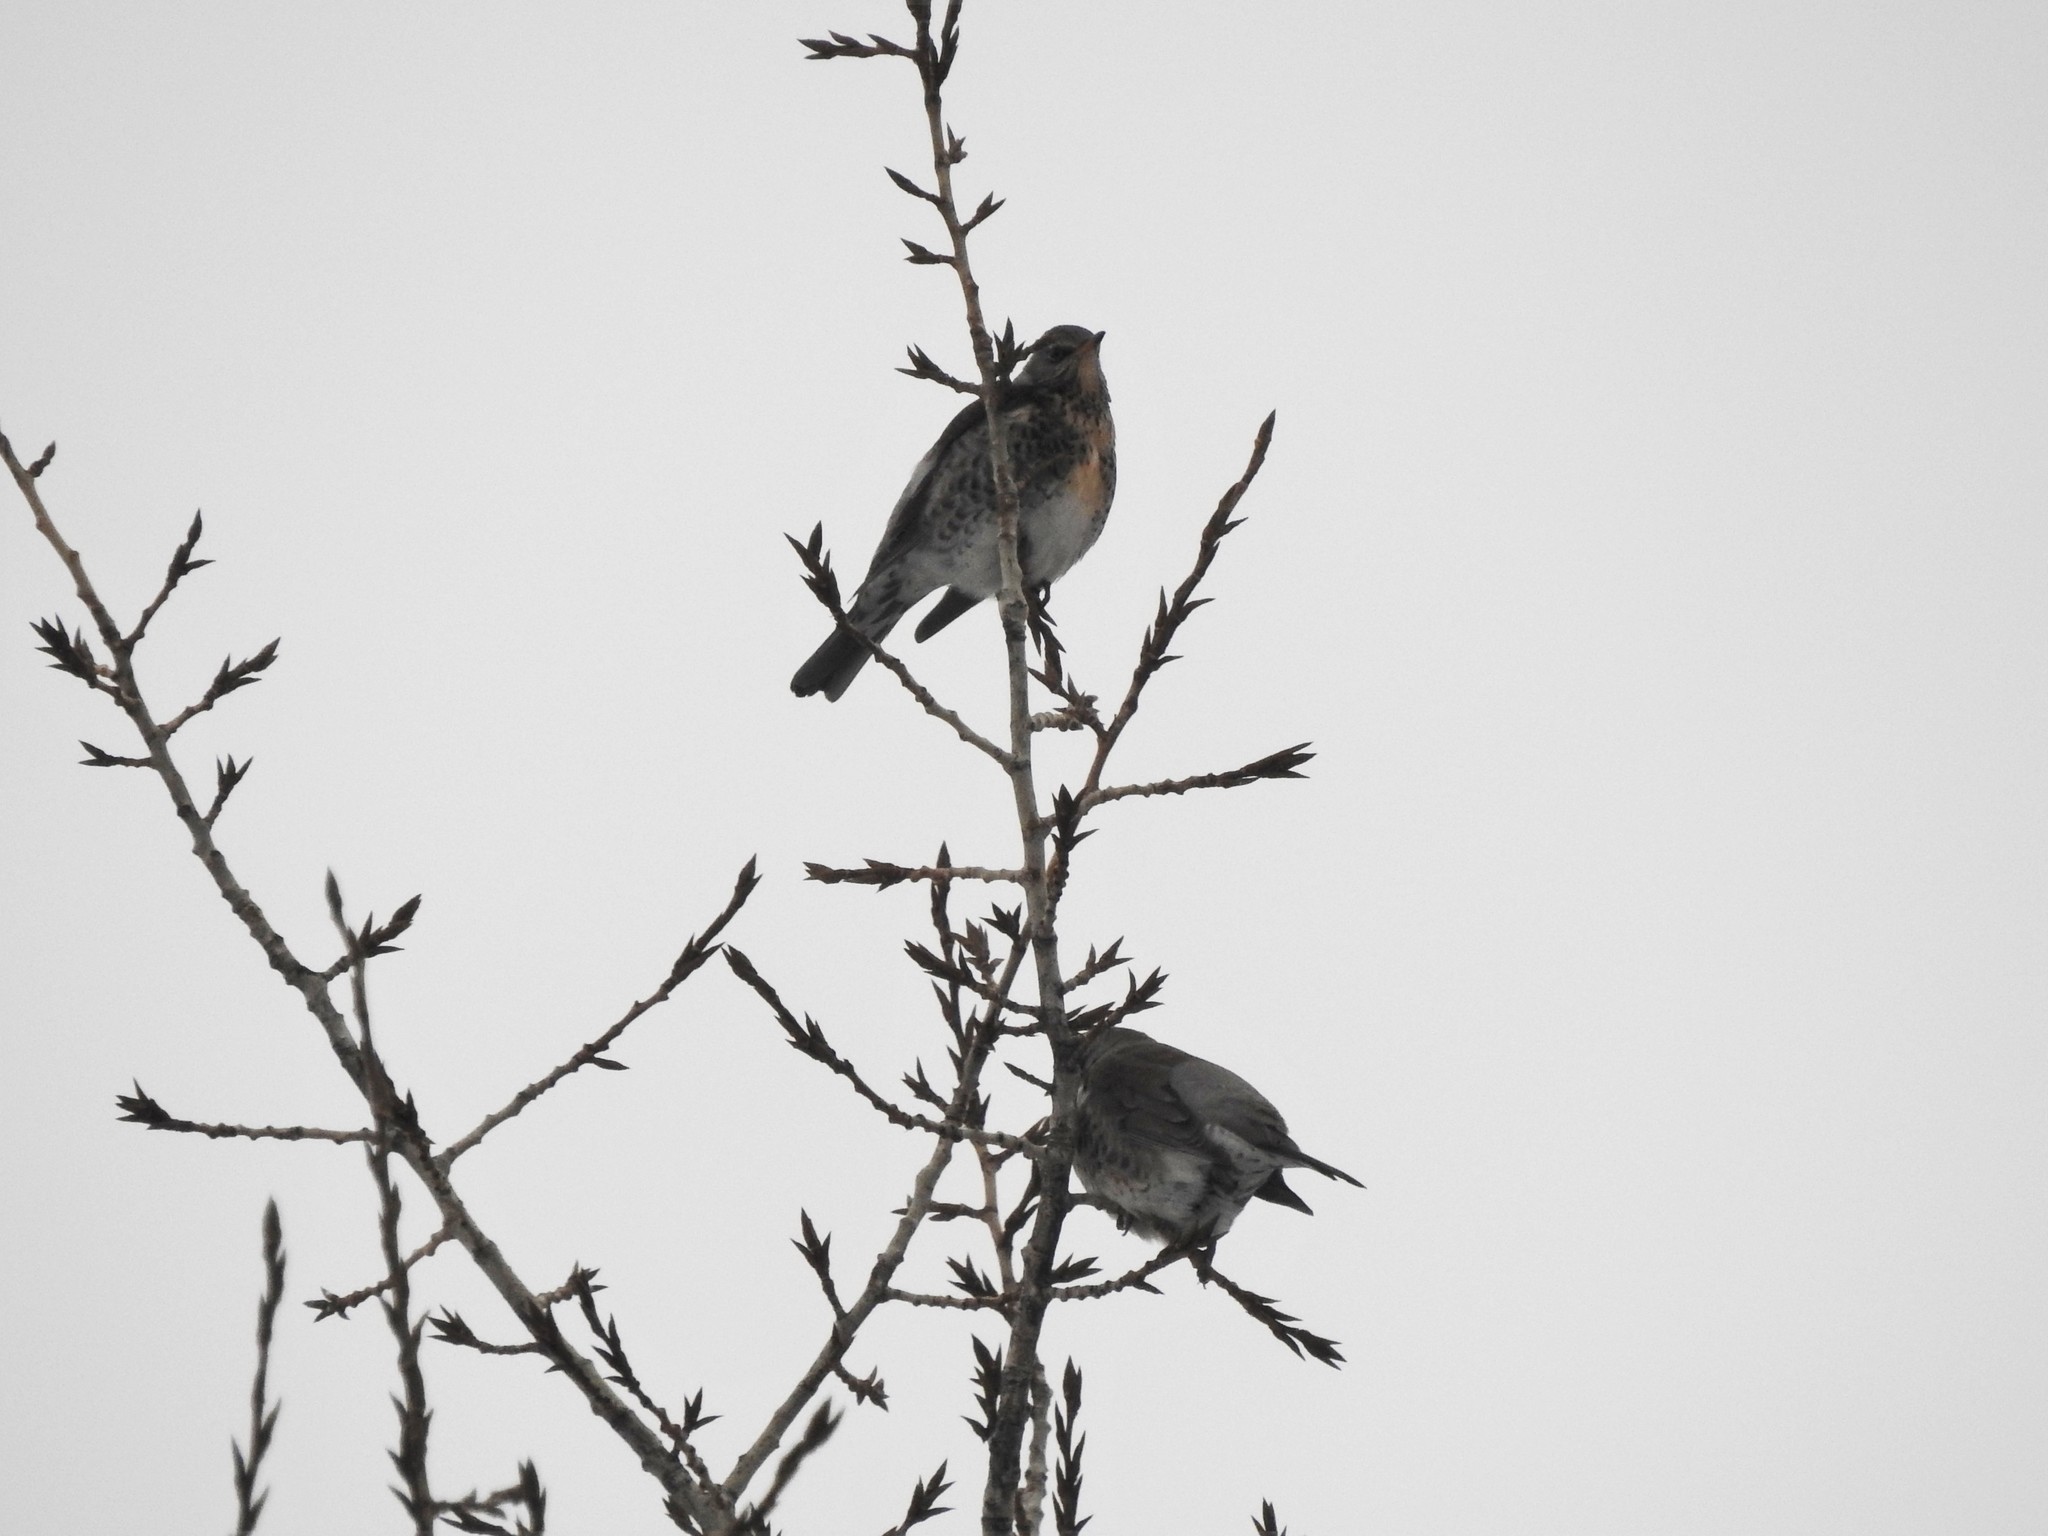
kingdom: Animalia
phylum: Chordata
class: Aves
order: Passeriformes
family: Turdidae
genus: Turdus
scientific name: Turdus pilaris
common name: Fieldfare
